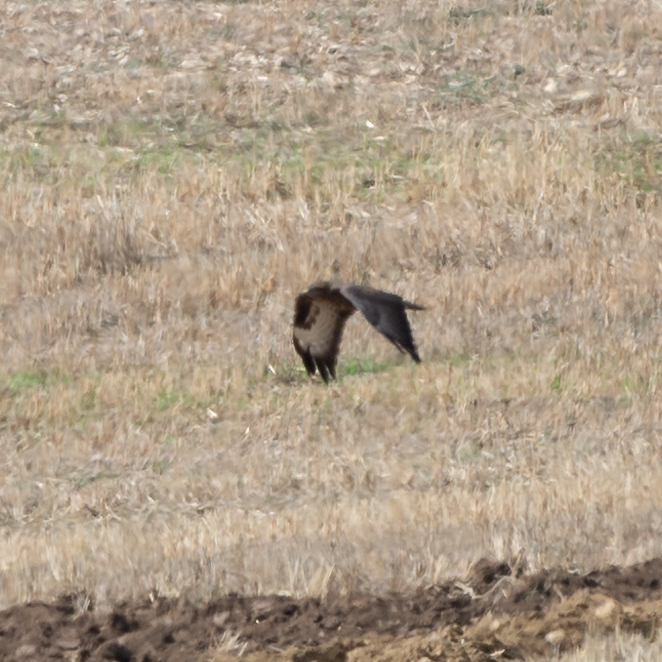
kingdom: Animalia
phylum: Chordata
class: Aves
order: Accipitriformes
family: Accipitridae
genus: Buteo
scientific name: Buteo buteo
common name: Common buzzard
